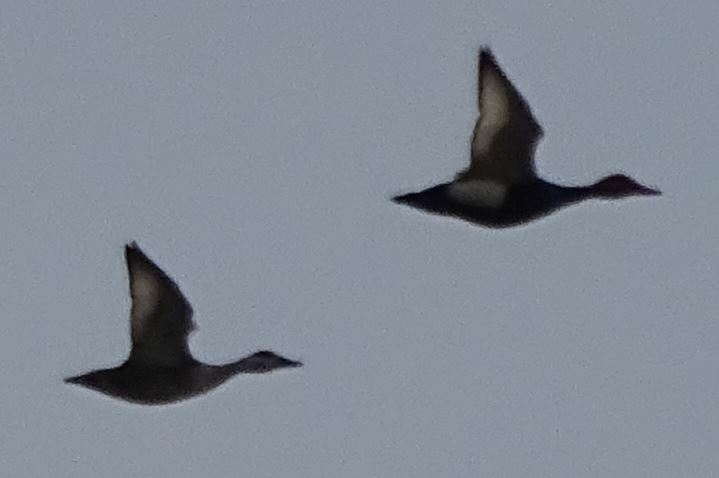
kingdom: Animalia
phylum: Chordata
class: Aves
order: Anseriformes
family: Anatidae
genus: Netta
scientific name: Netta rufina
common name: Red-crested pochard
